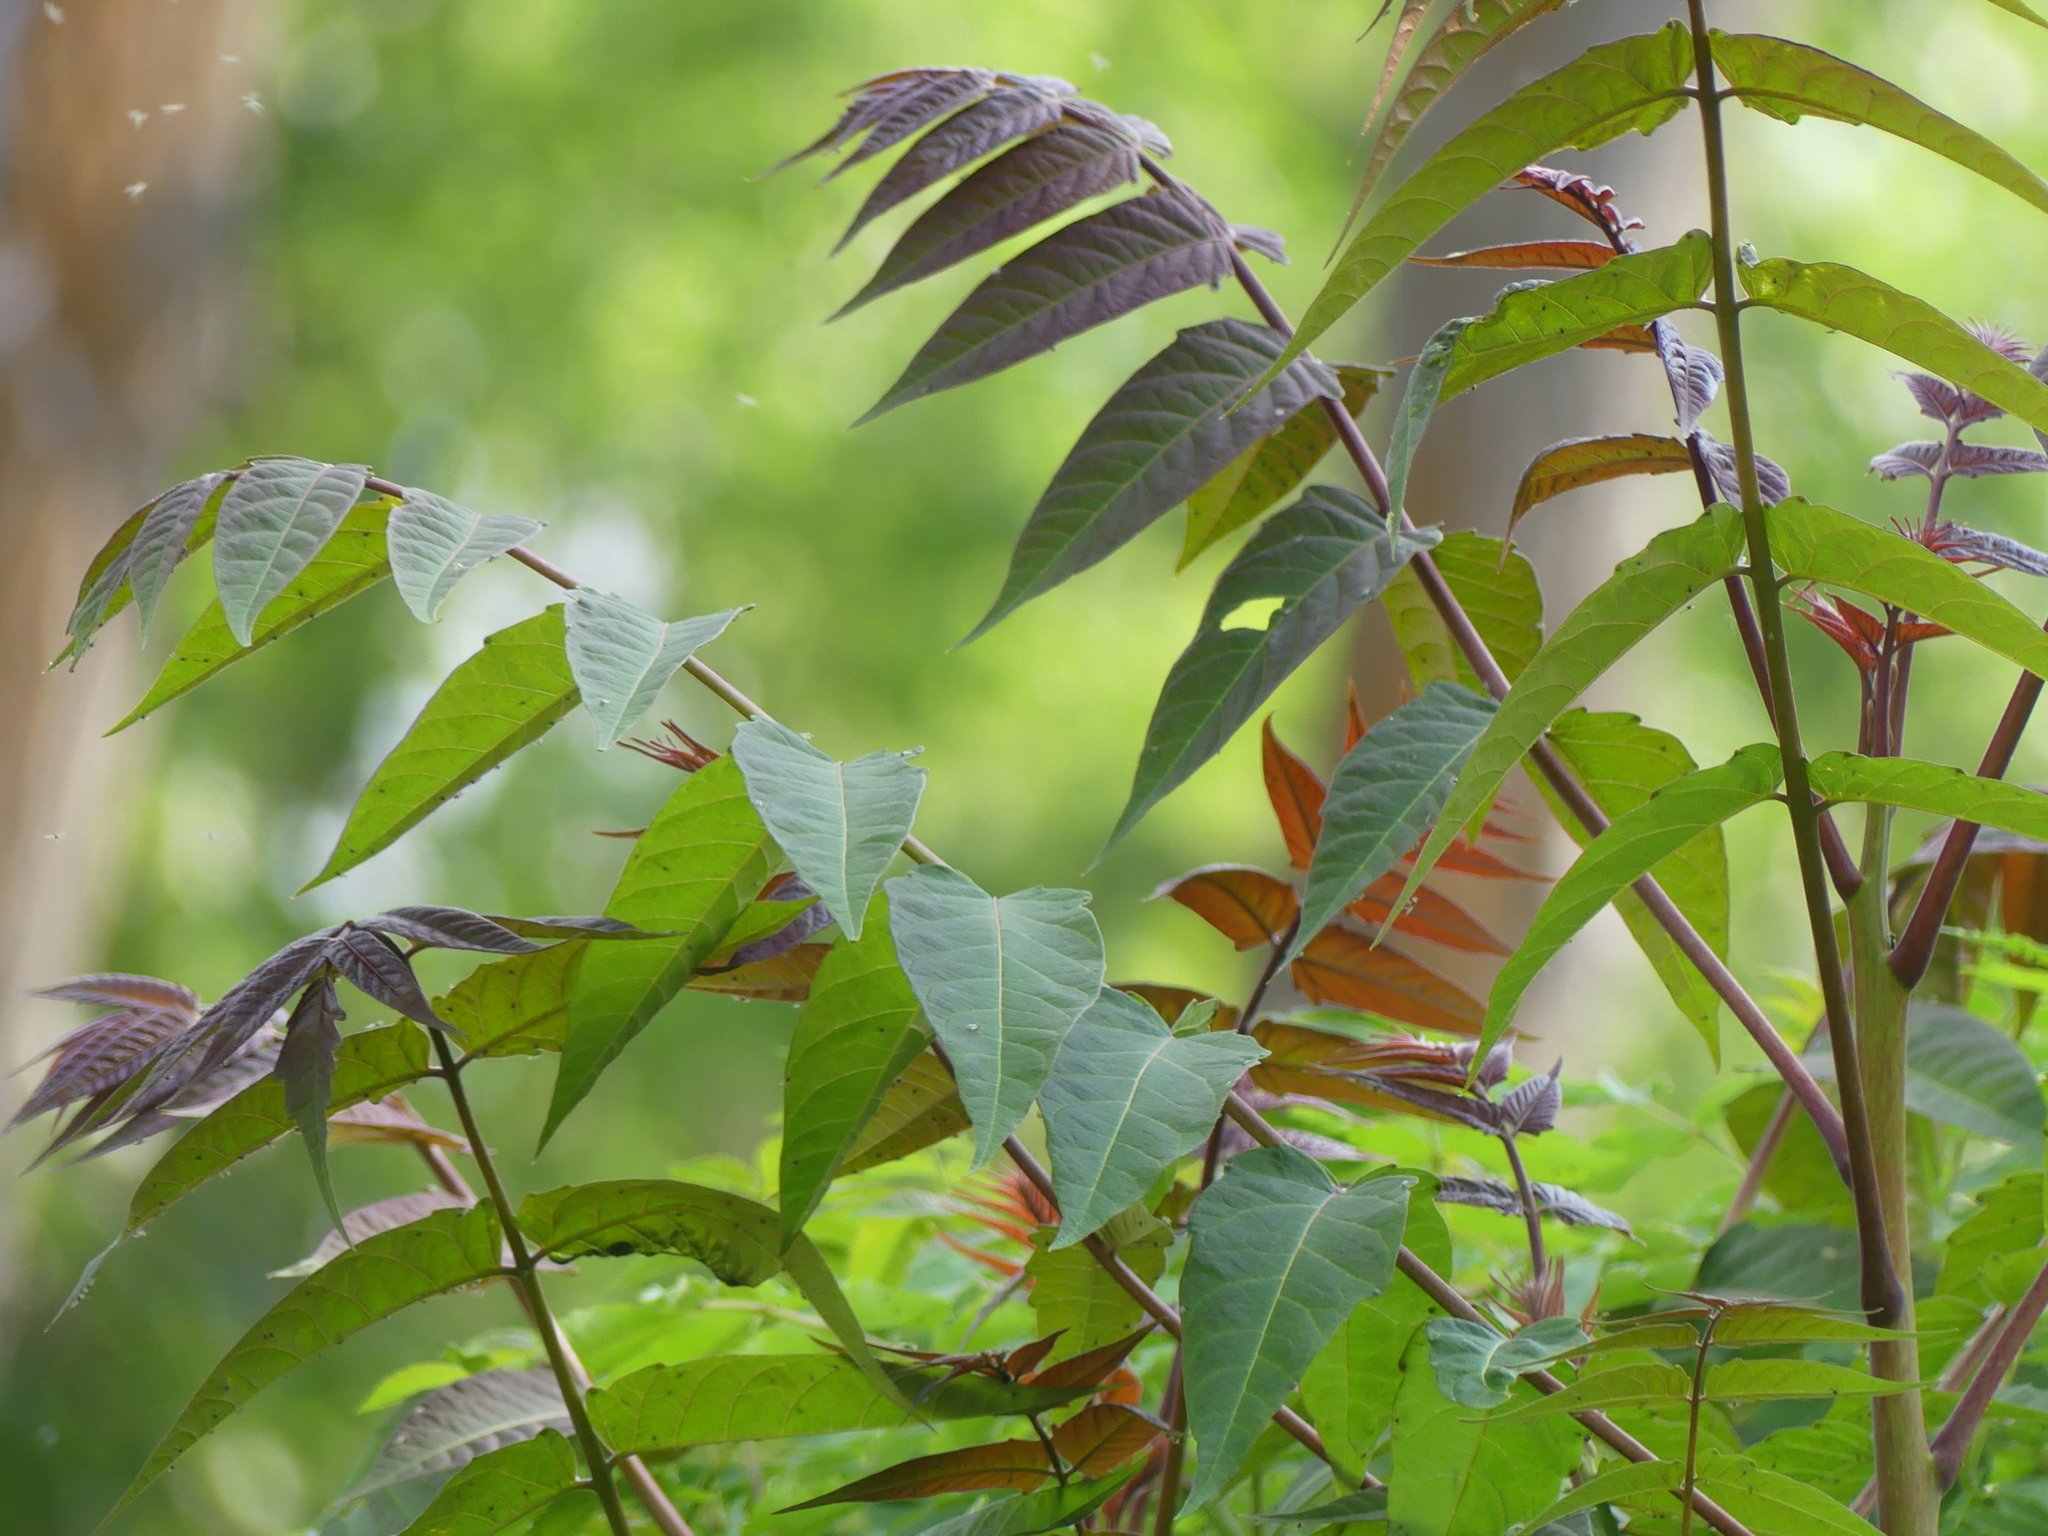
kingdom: Plantae
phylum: Tracheophyta
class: Magnoliopsida
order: Sapindales
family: Simaroubaceae
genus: Ailanthus
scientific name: Ailanthus altissima
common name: Tree-of-heaven
